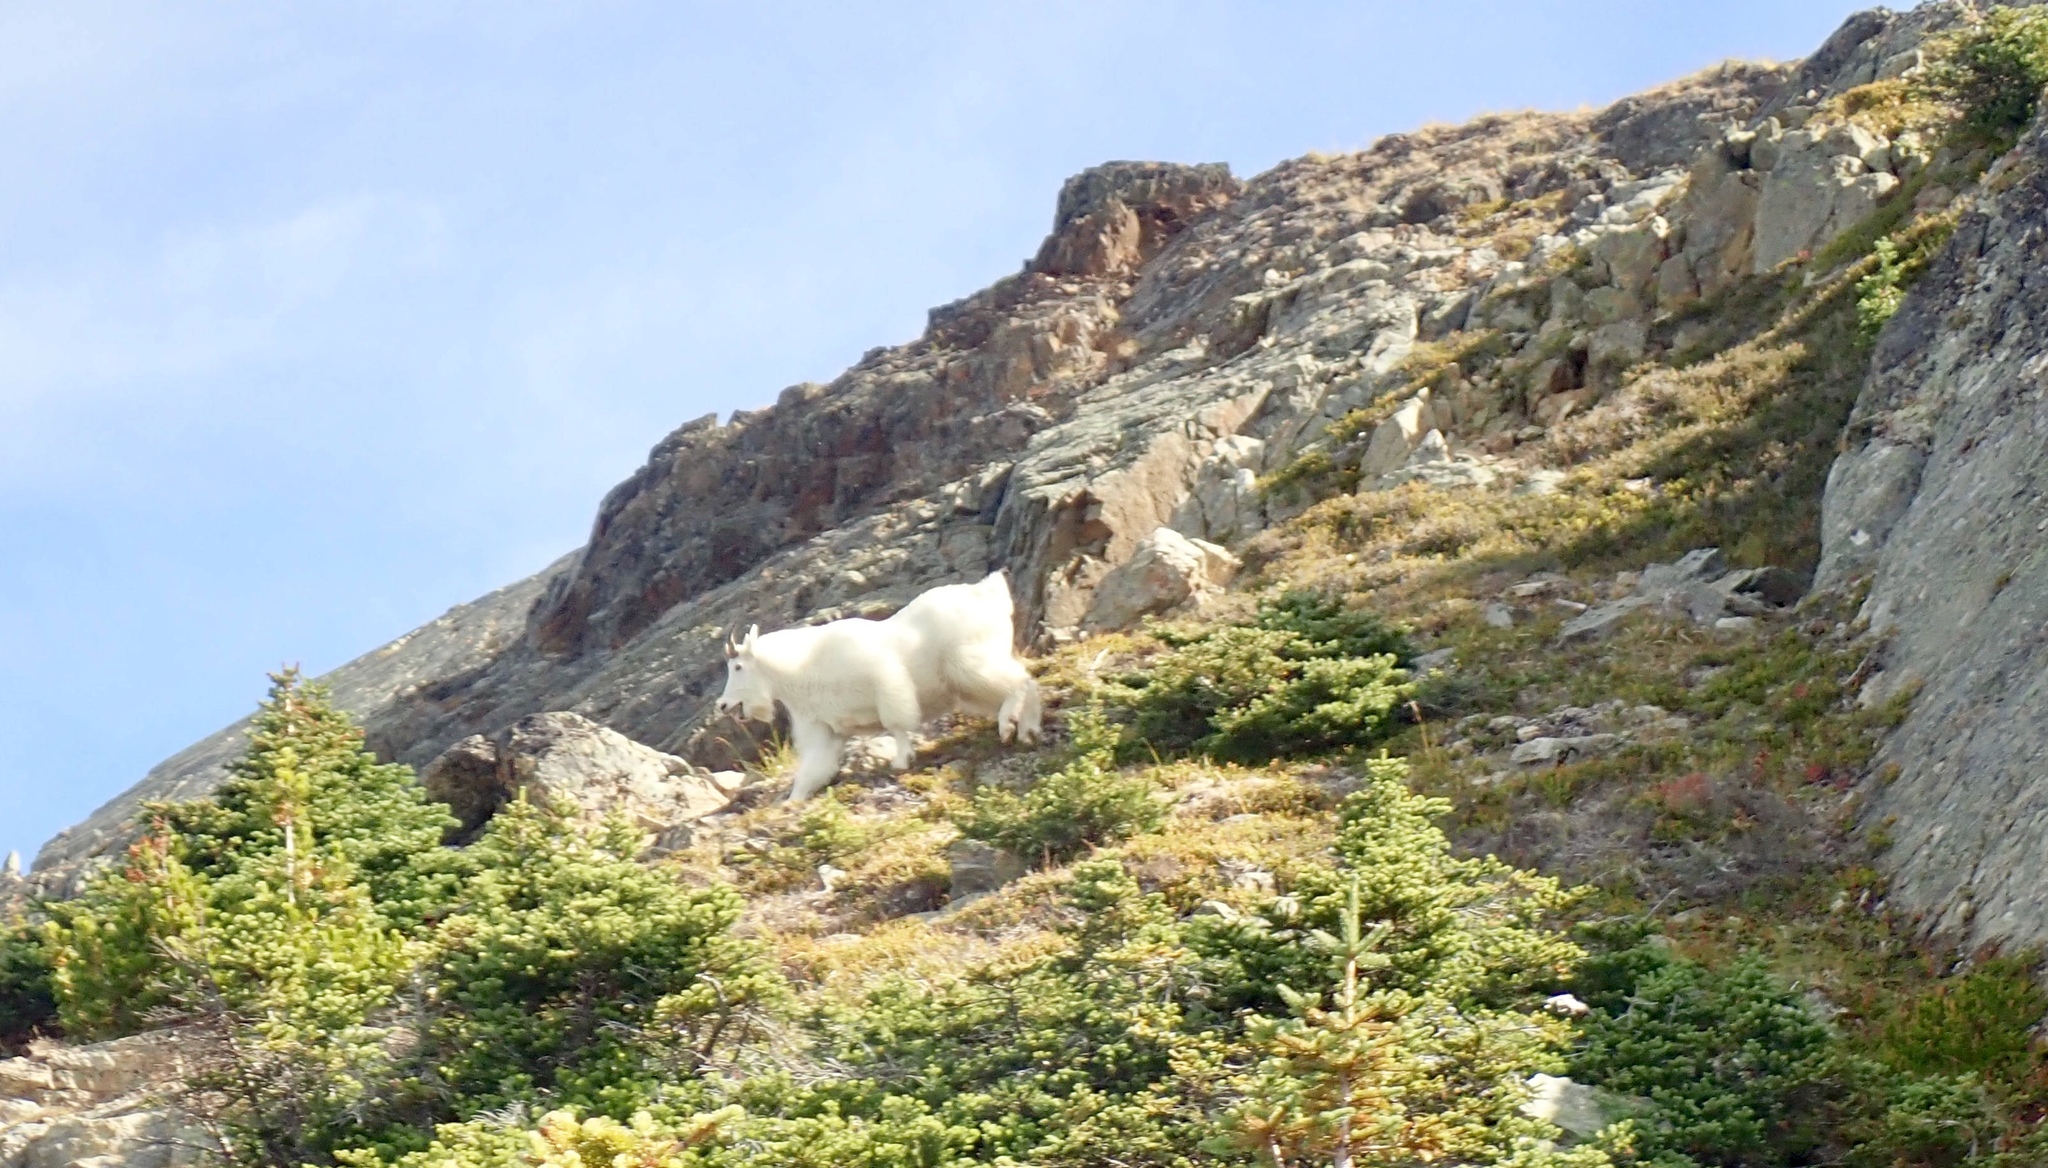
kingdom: Animalia
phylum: Chordata
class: Mammalia
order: Artiodactyla
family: Bovidae
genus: Oreamnos
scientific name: Oreamnos americanus
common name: Mountain goat
